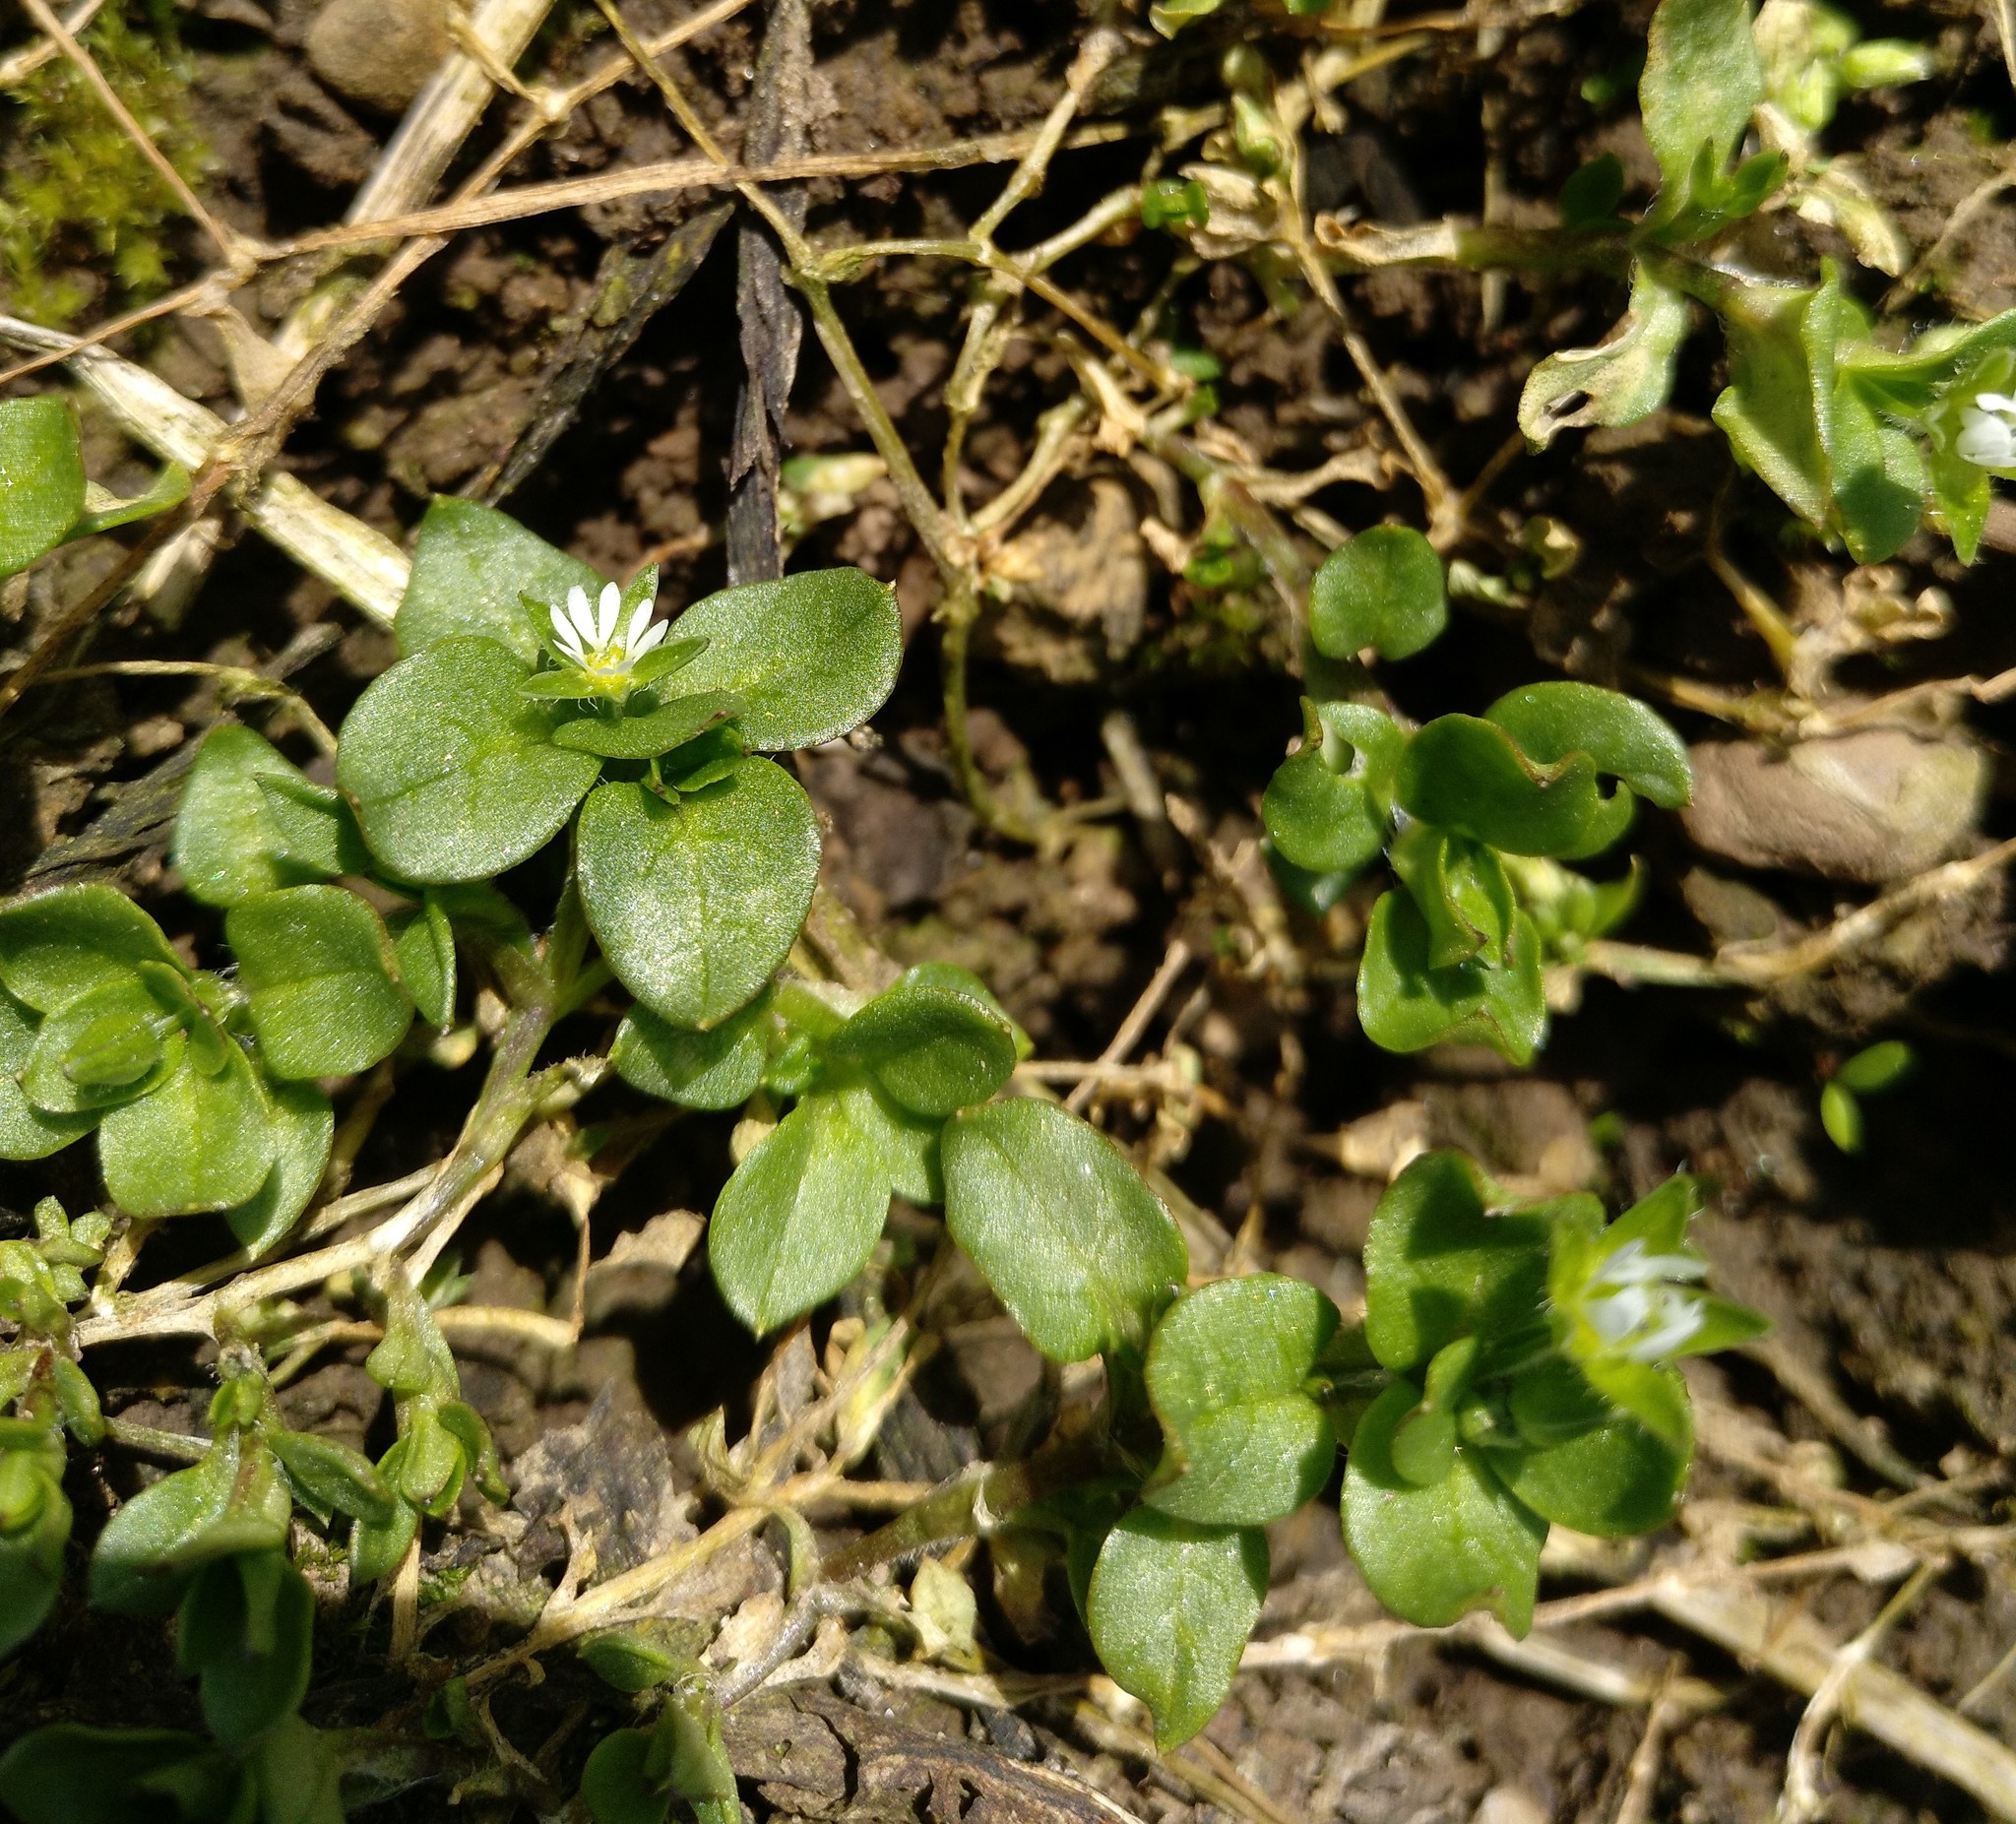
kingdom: Plantae
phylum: Tracheophyta
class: Magnoliopsida
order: Caryophyllales
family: Caryophyllaceae
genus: Stellaria
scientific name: Stellaria media
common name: Common chickweed
